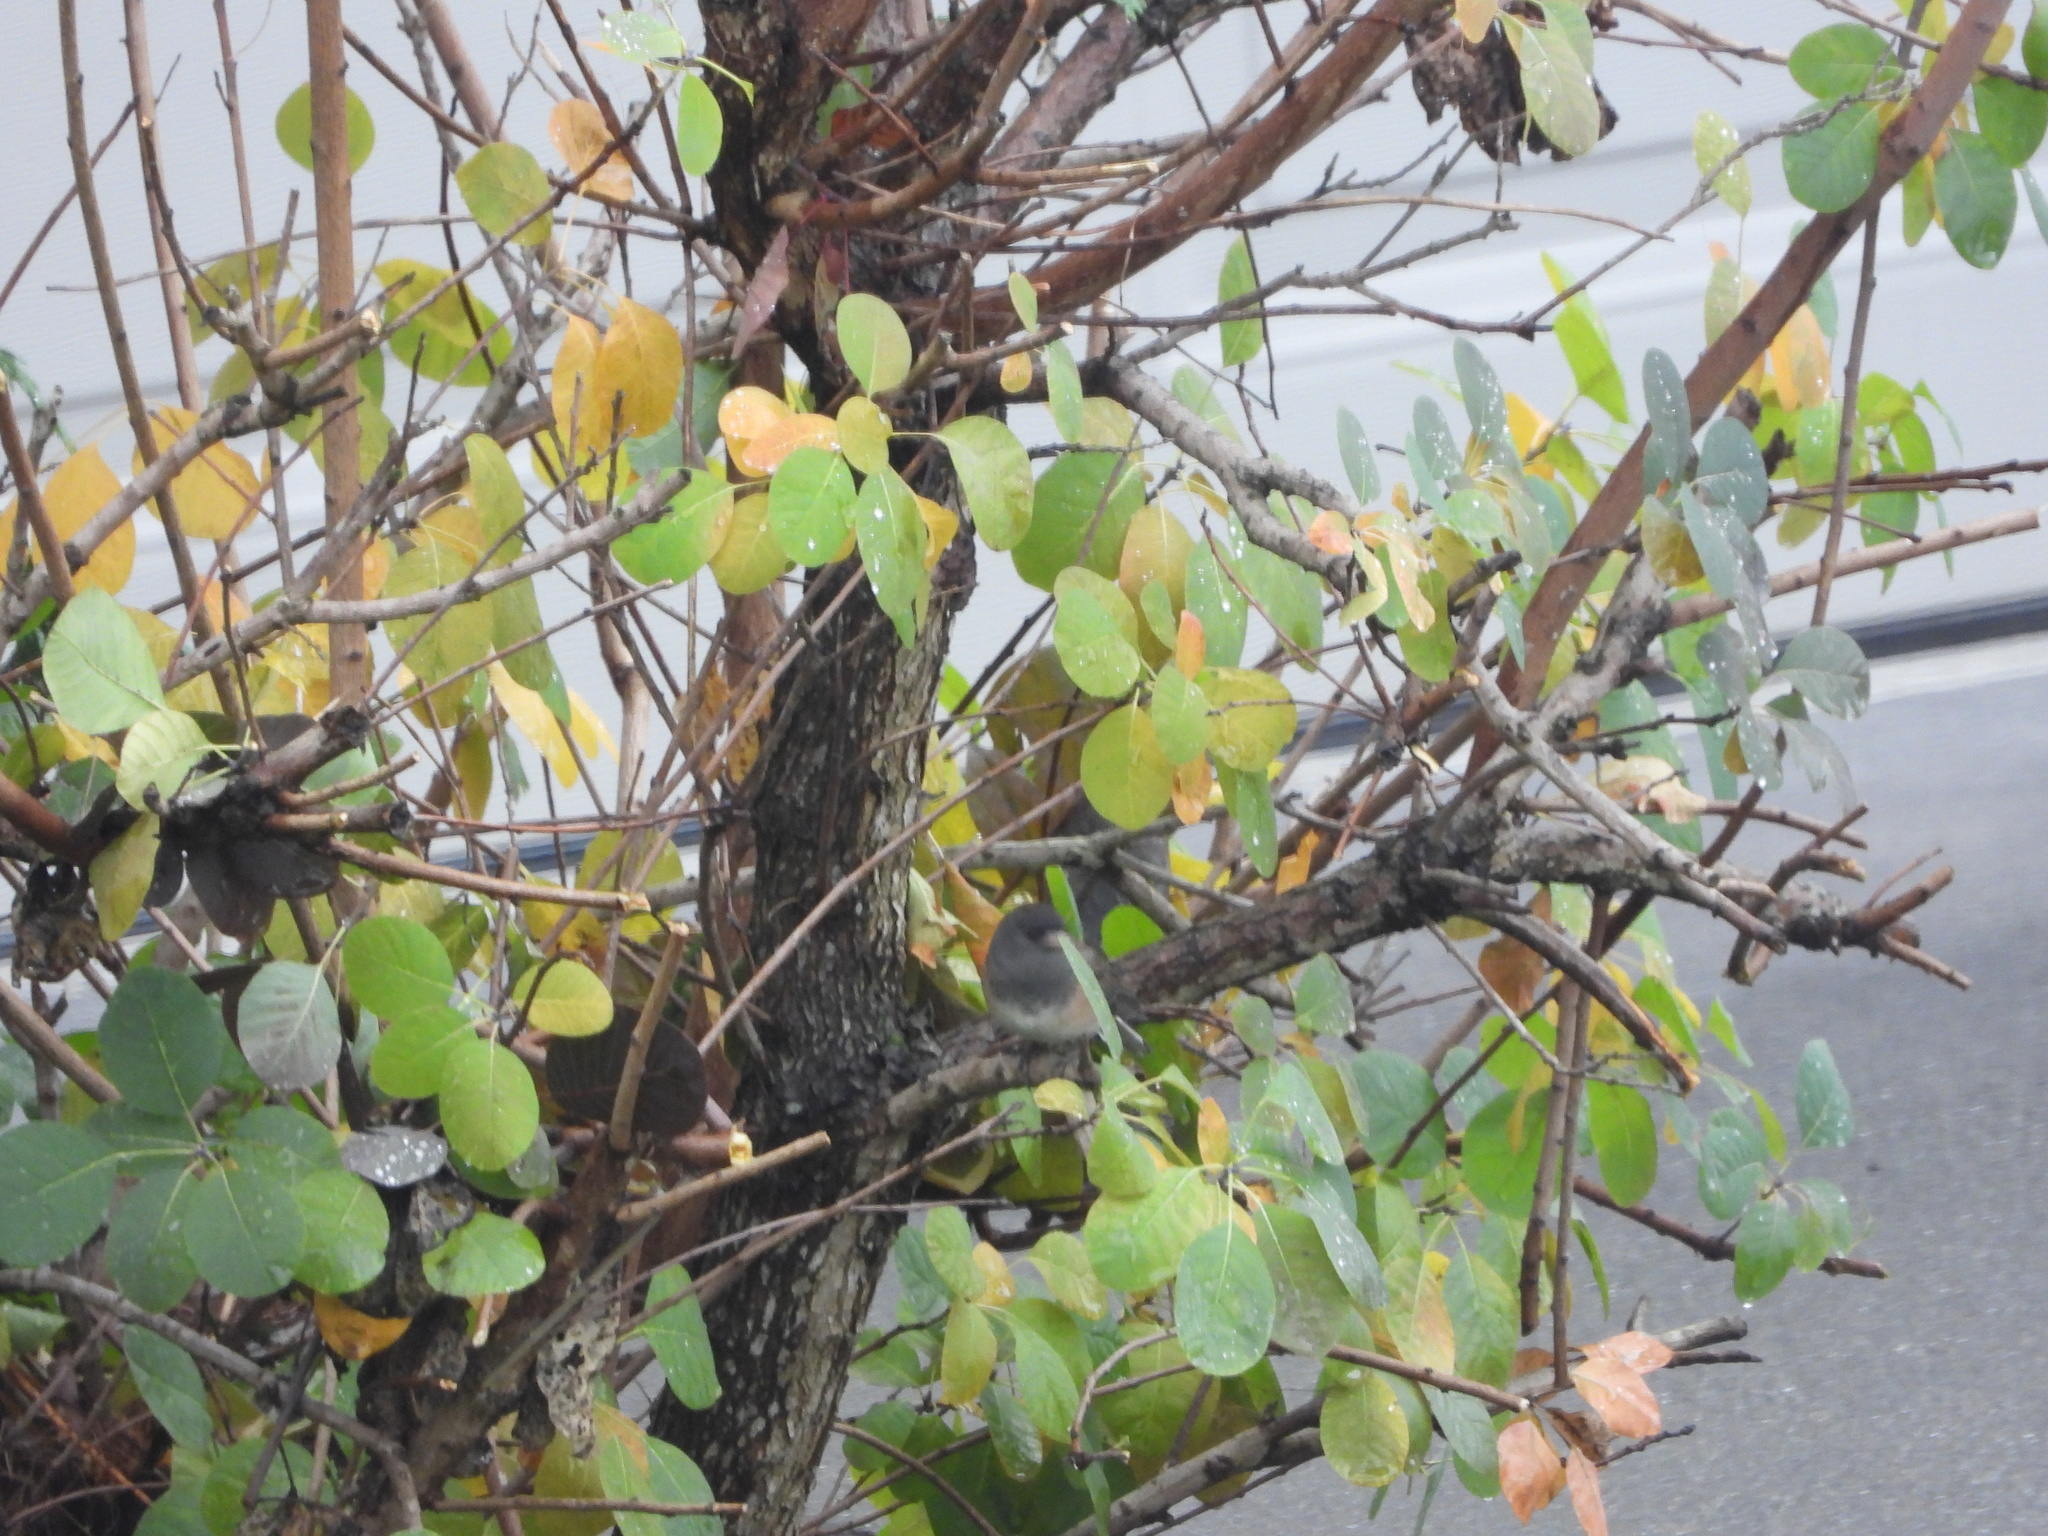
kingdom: Animalia
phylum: Chordata
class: Aves
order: Passeriformes
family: Passerellidae
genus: Junco
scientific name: Junco hyemalis
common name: Dark-eyed junco
